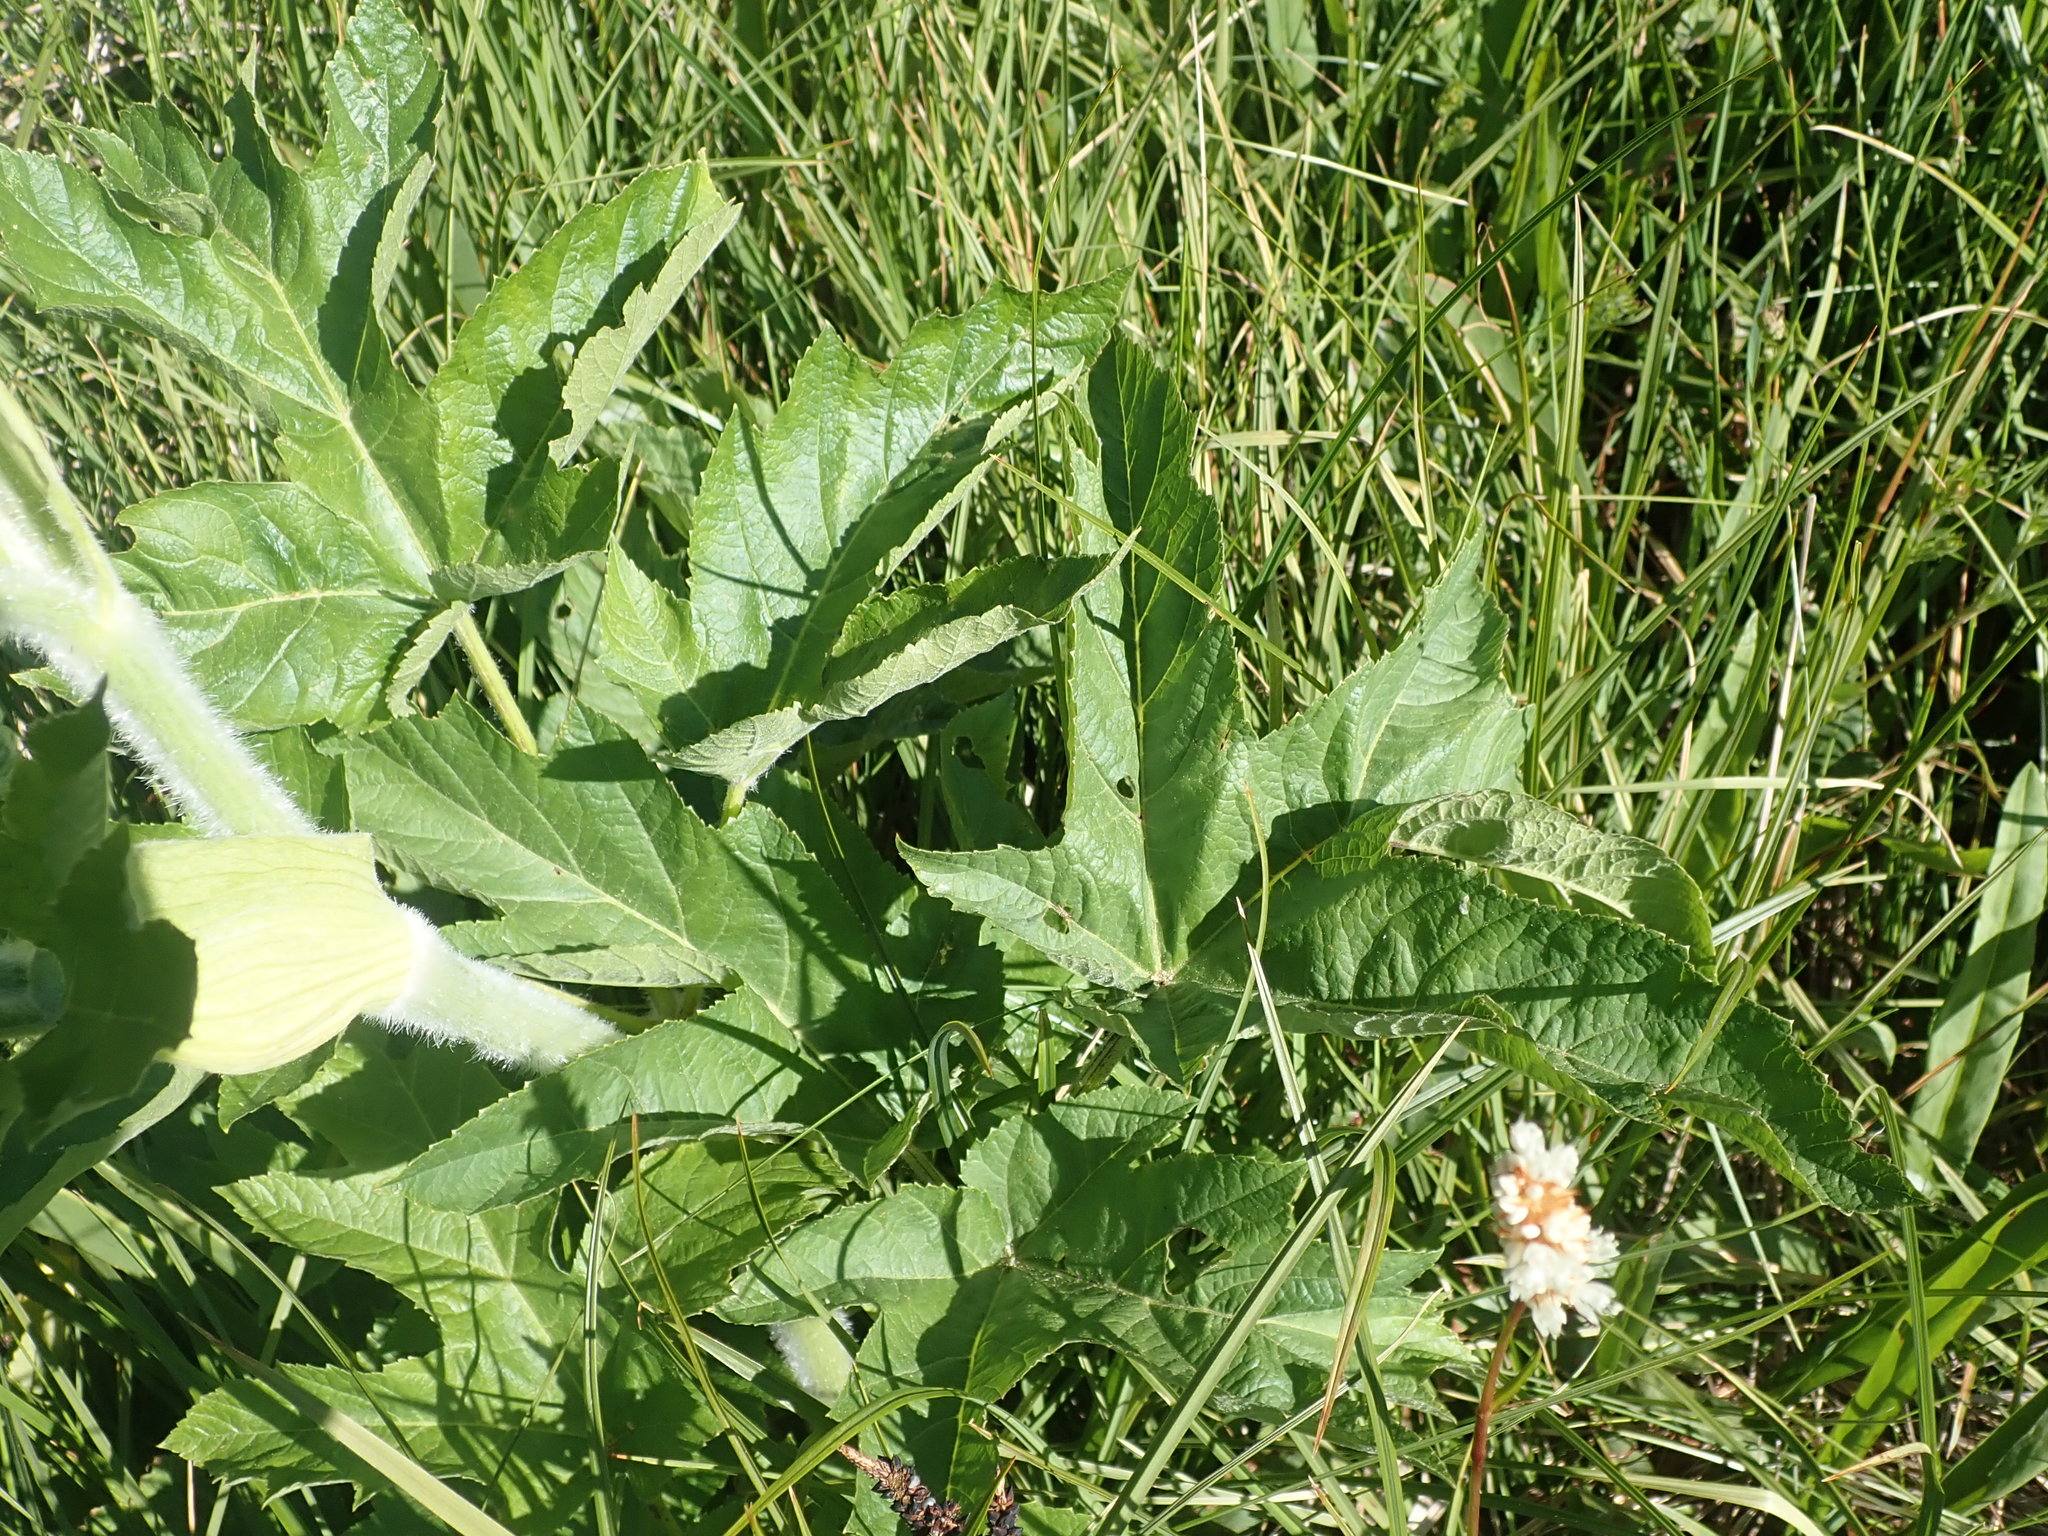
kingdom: Plantae
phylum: Tracheophyta
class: Magnoliopsida
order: Apiales
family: Apiaceae
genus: Heracleum
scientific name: Heracleum maximum
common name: American cow parsnip
